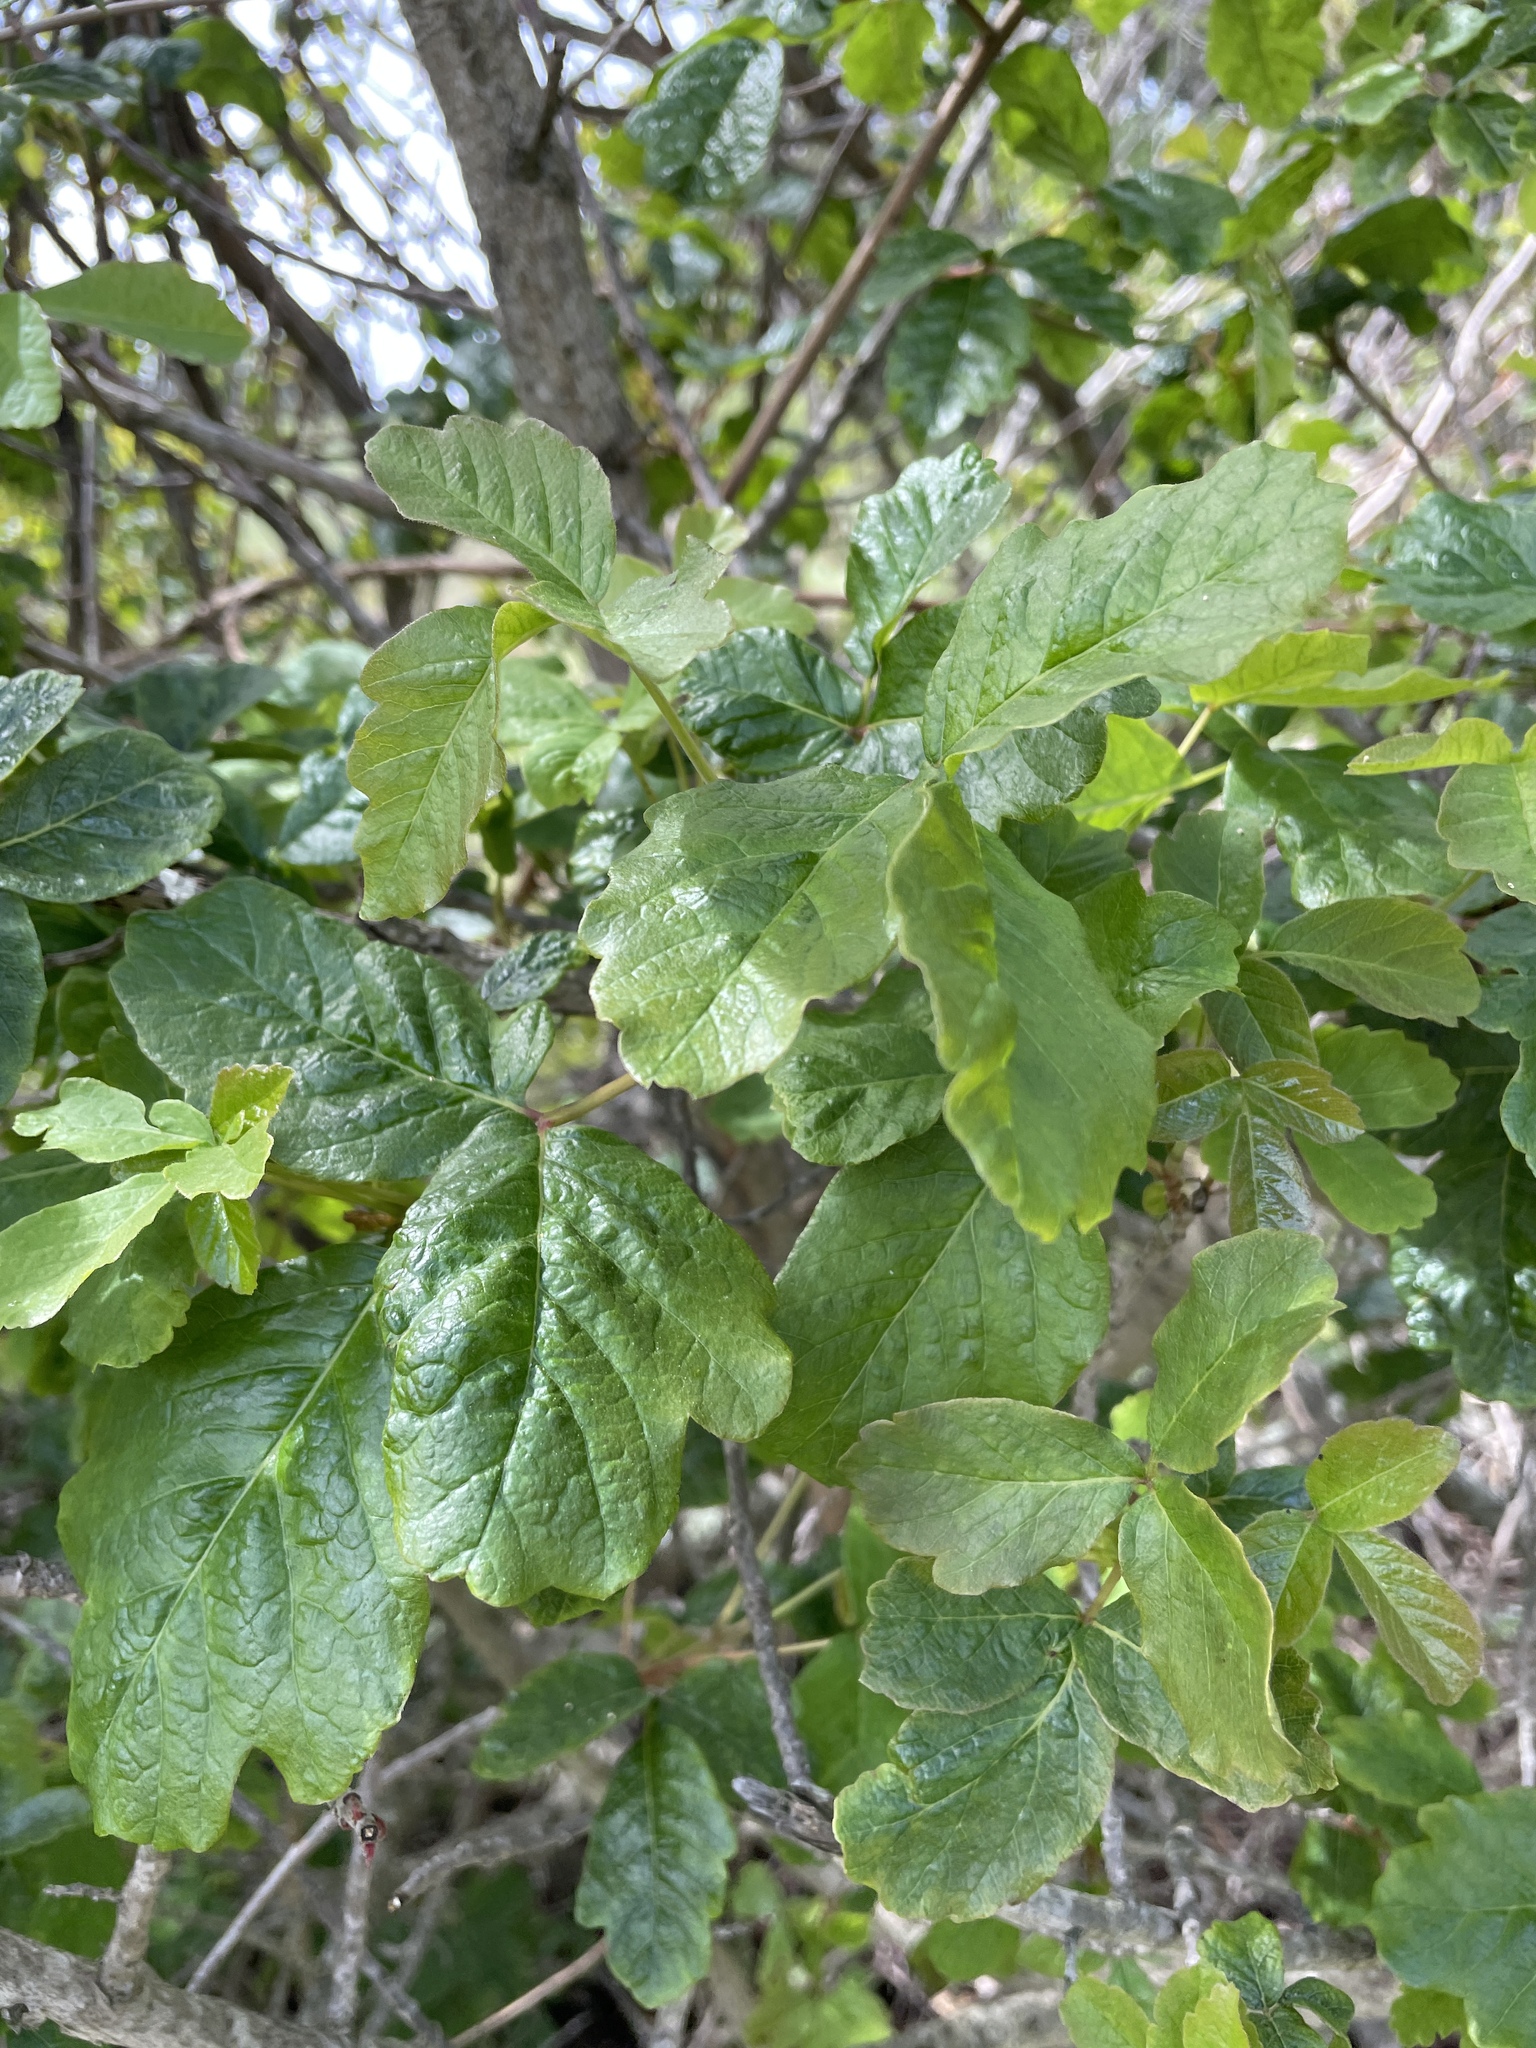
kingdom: Plantae
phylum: Tracheophyta
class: Magnoliopsida
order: Sapindales
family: Anacardiaceae
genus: Toxicodendron
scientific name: Toxicodendron diversilobum
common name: Pacific poison-oak
